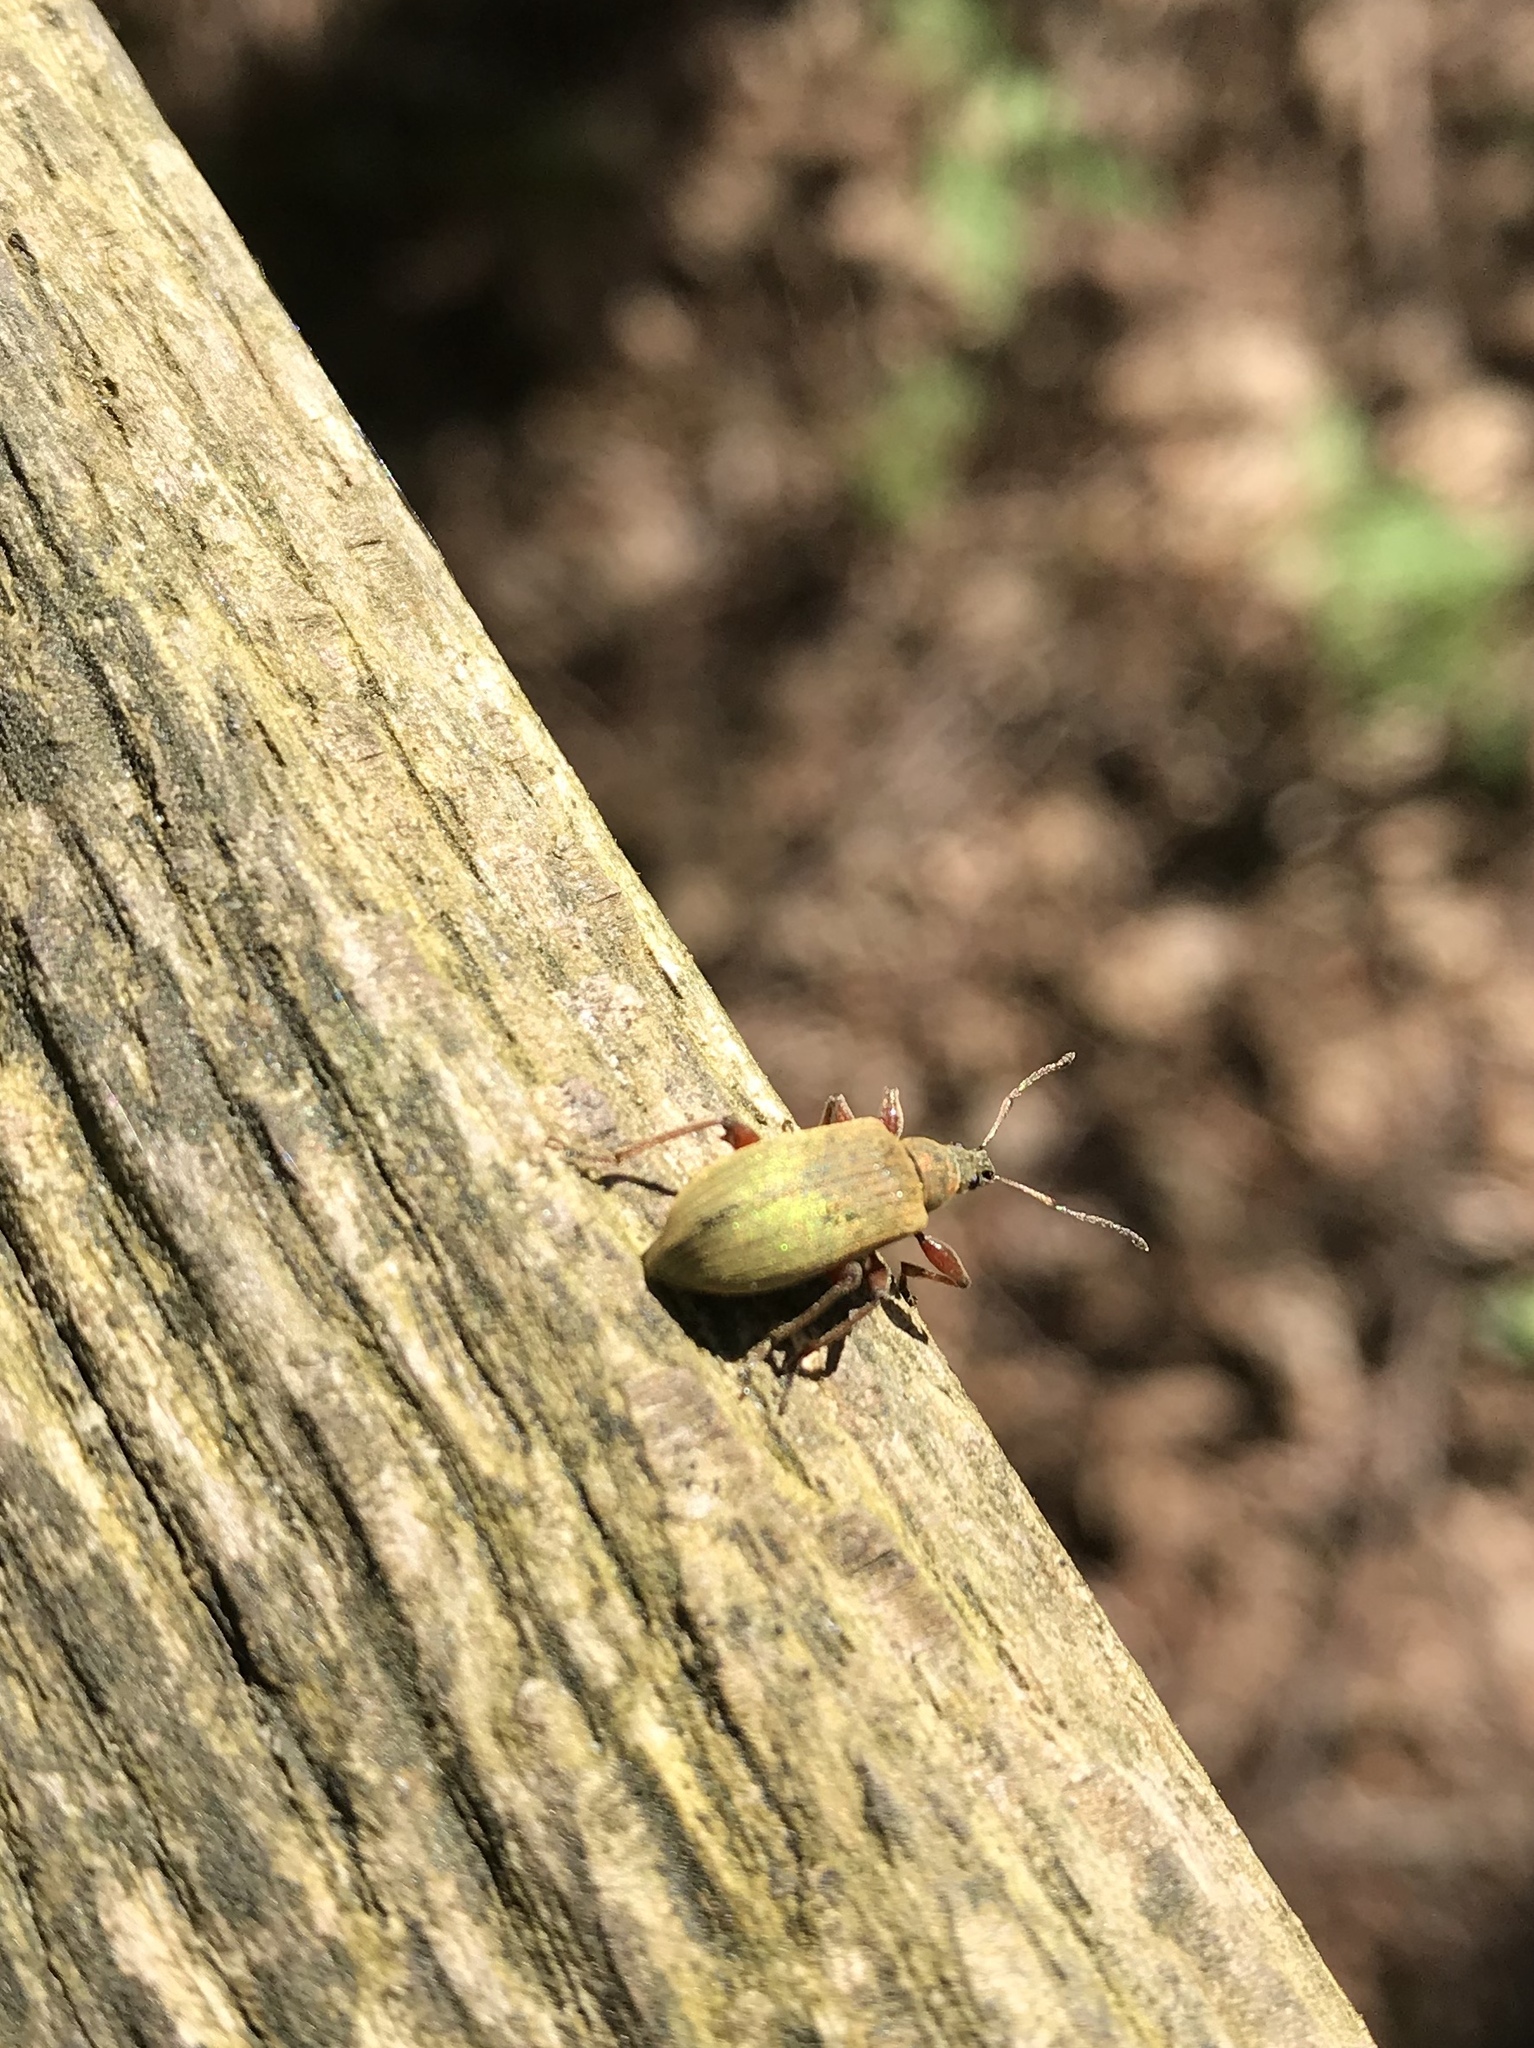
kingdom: Animalia
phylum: Arthropoda
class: Insecta
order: Coleoptera
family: Curculionidae
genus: Phyllobius
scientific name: Phyllobius glaucus
